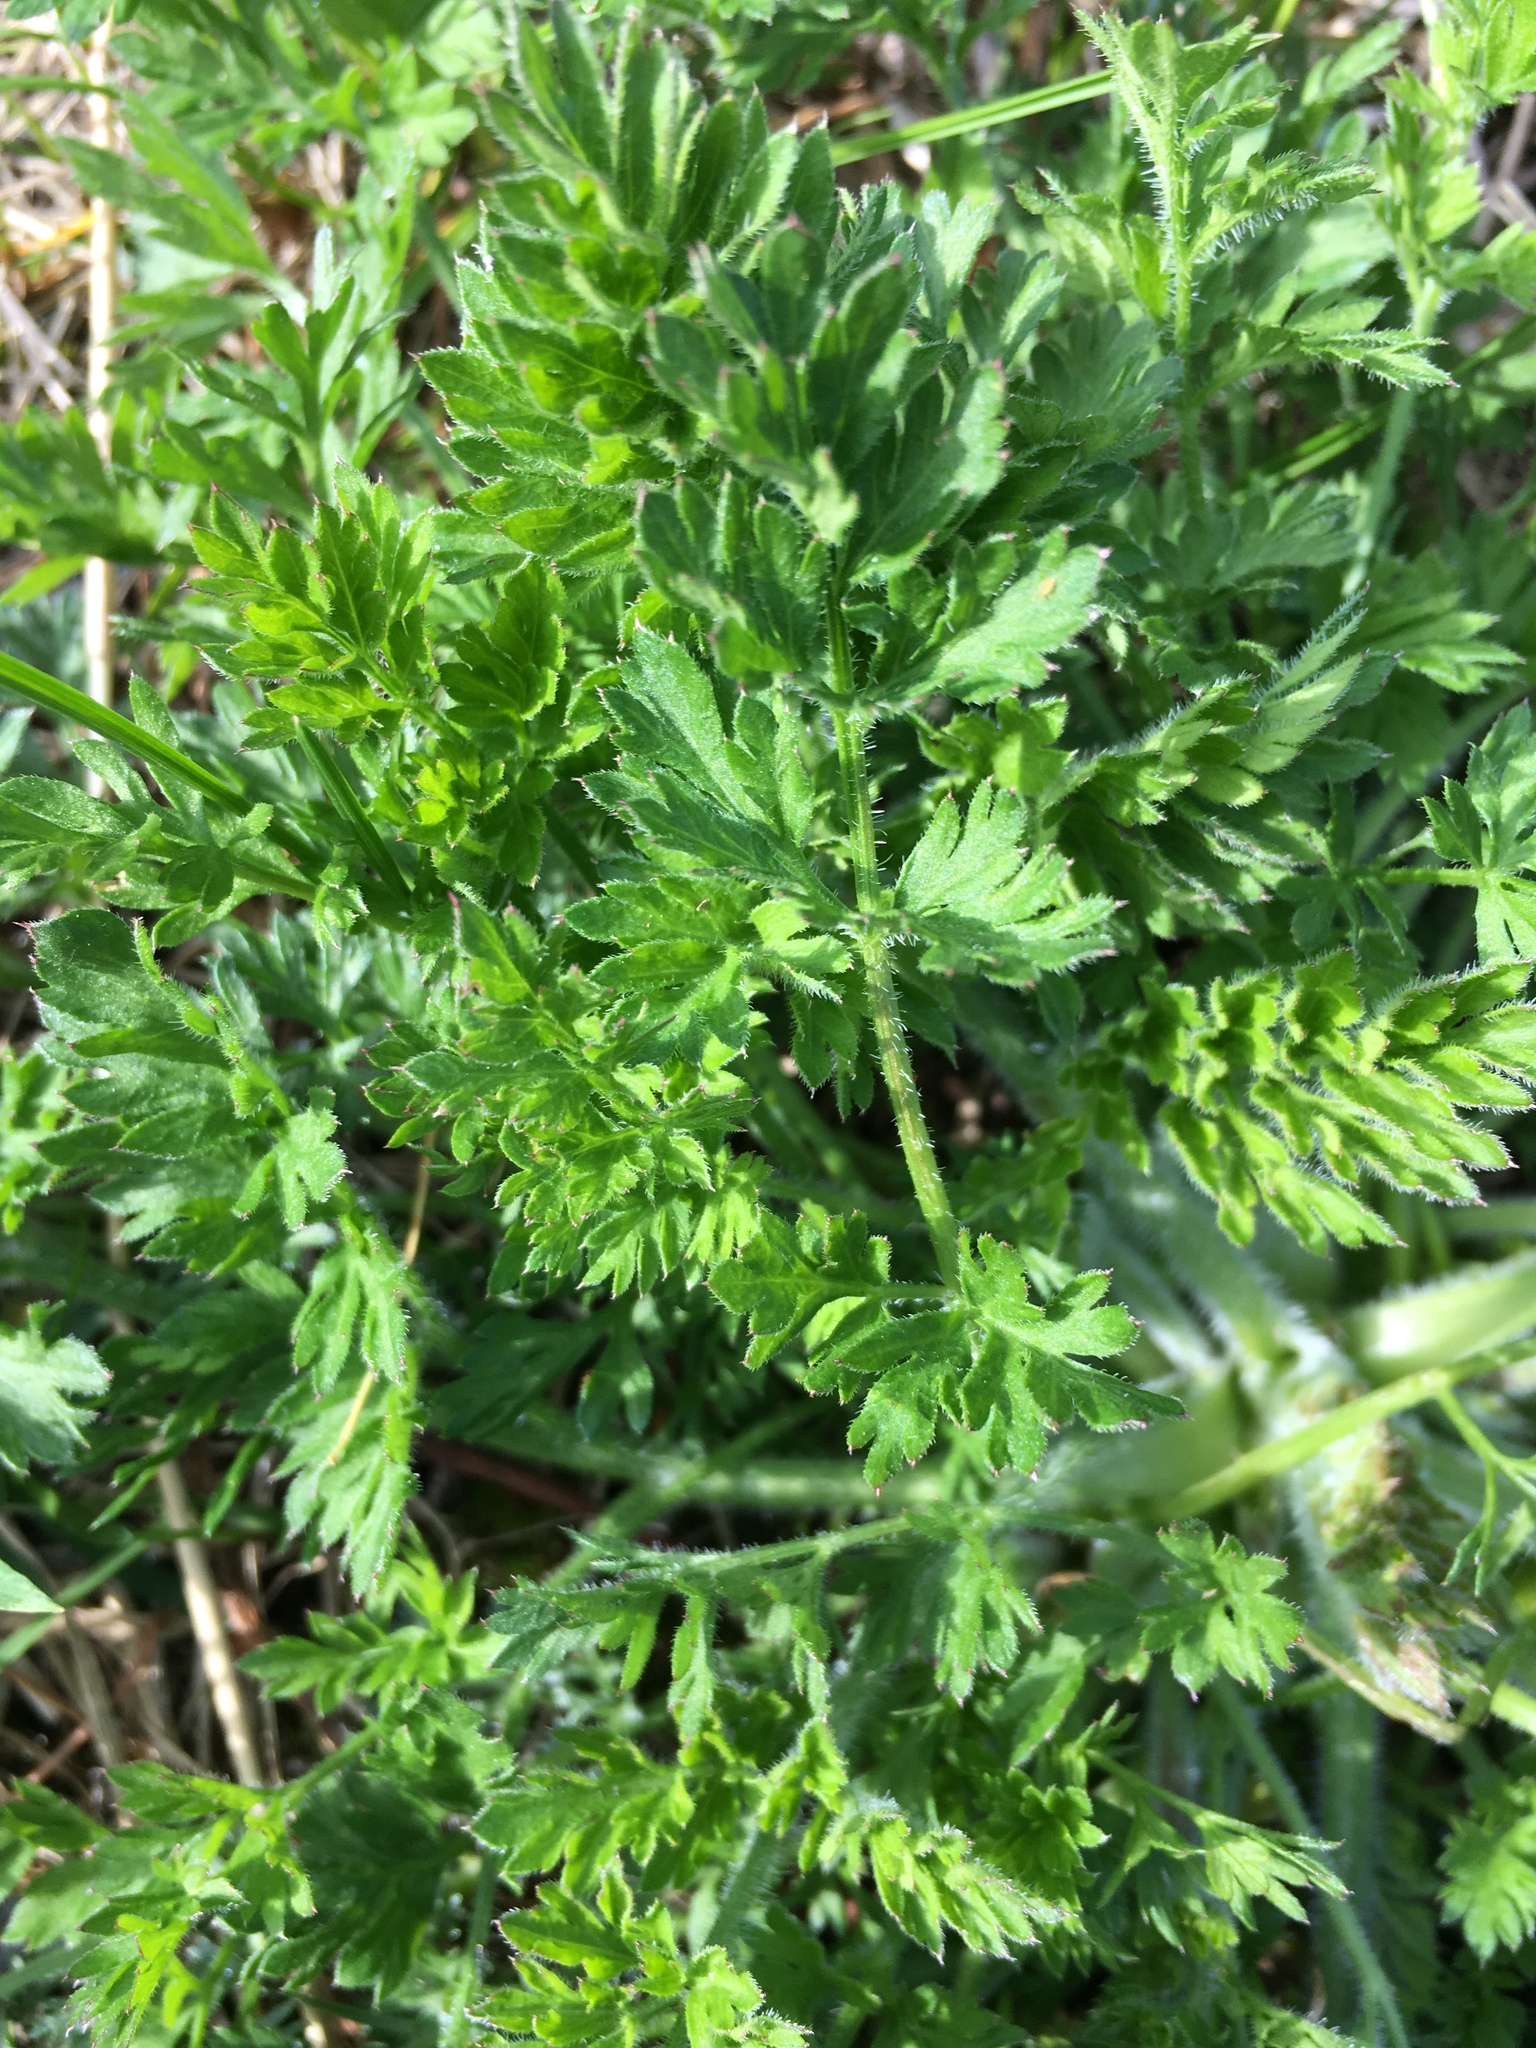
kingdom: Plantae
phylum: Tracheophyta
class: Magnoliopsida
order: Apiales
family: Apiaceae
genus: Daucus
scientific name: Daucus carota
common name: Wild carrot
